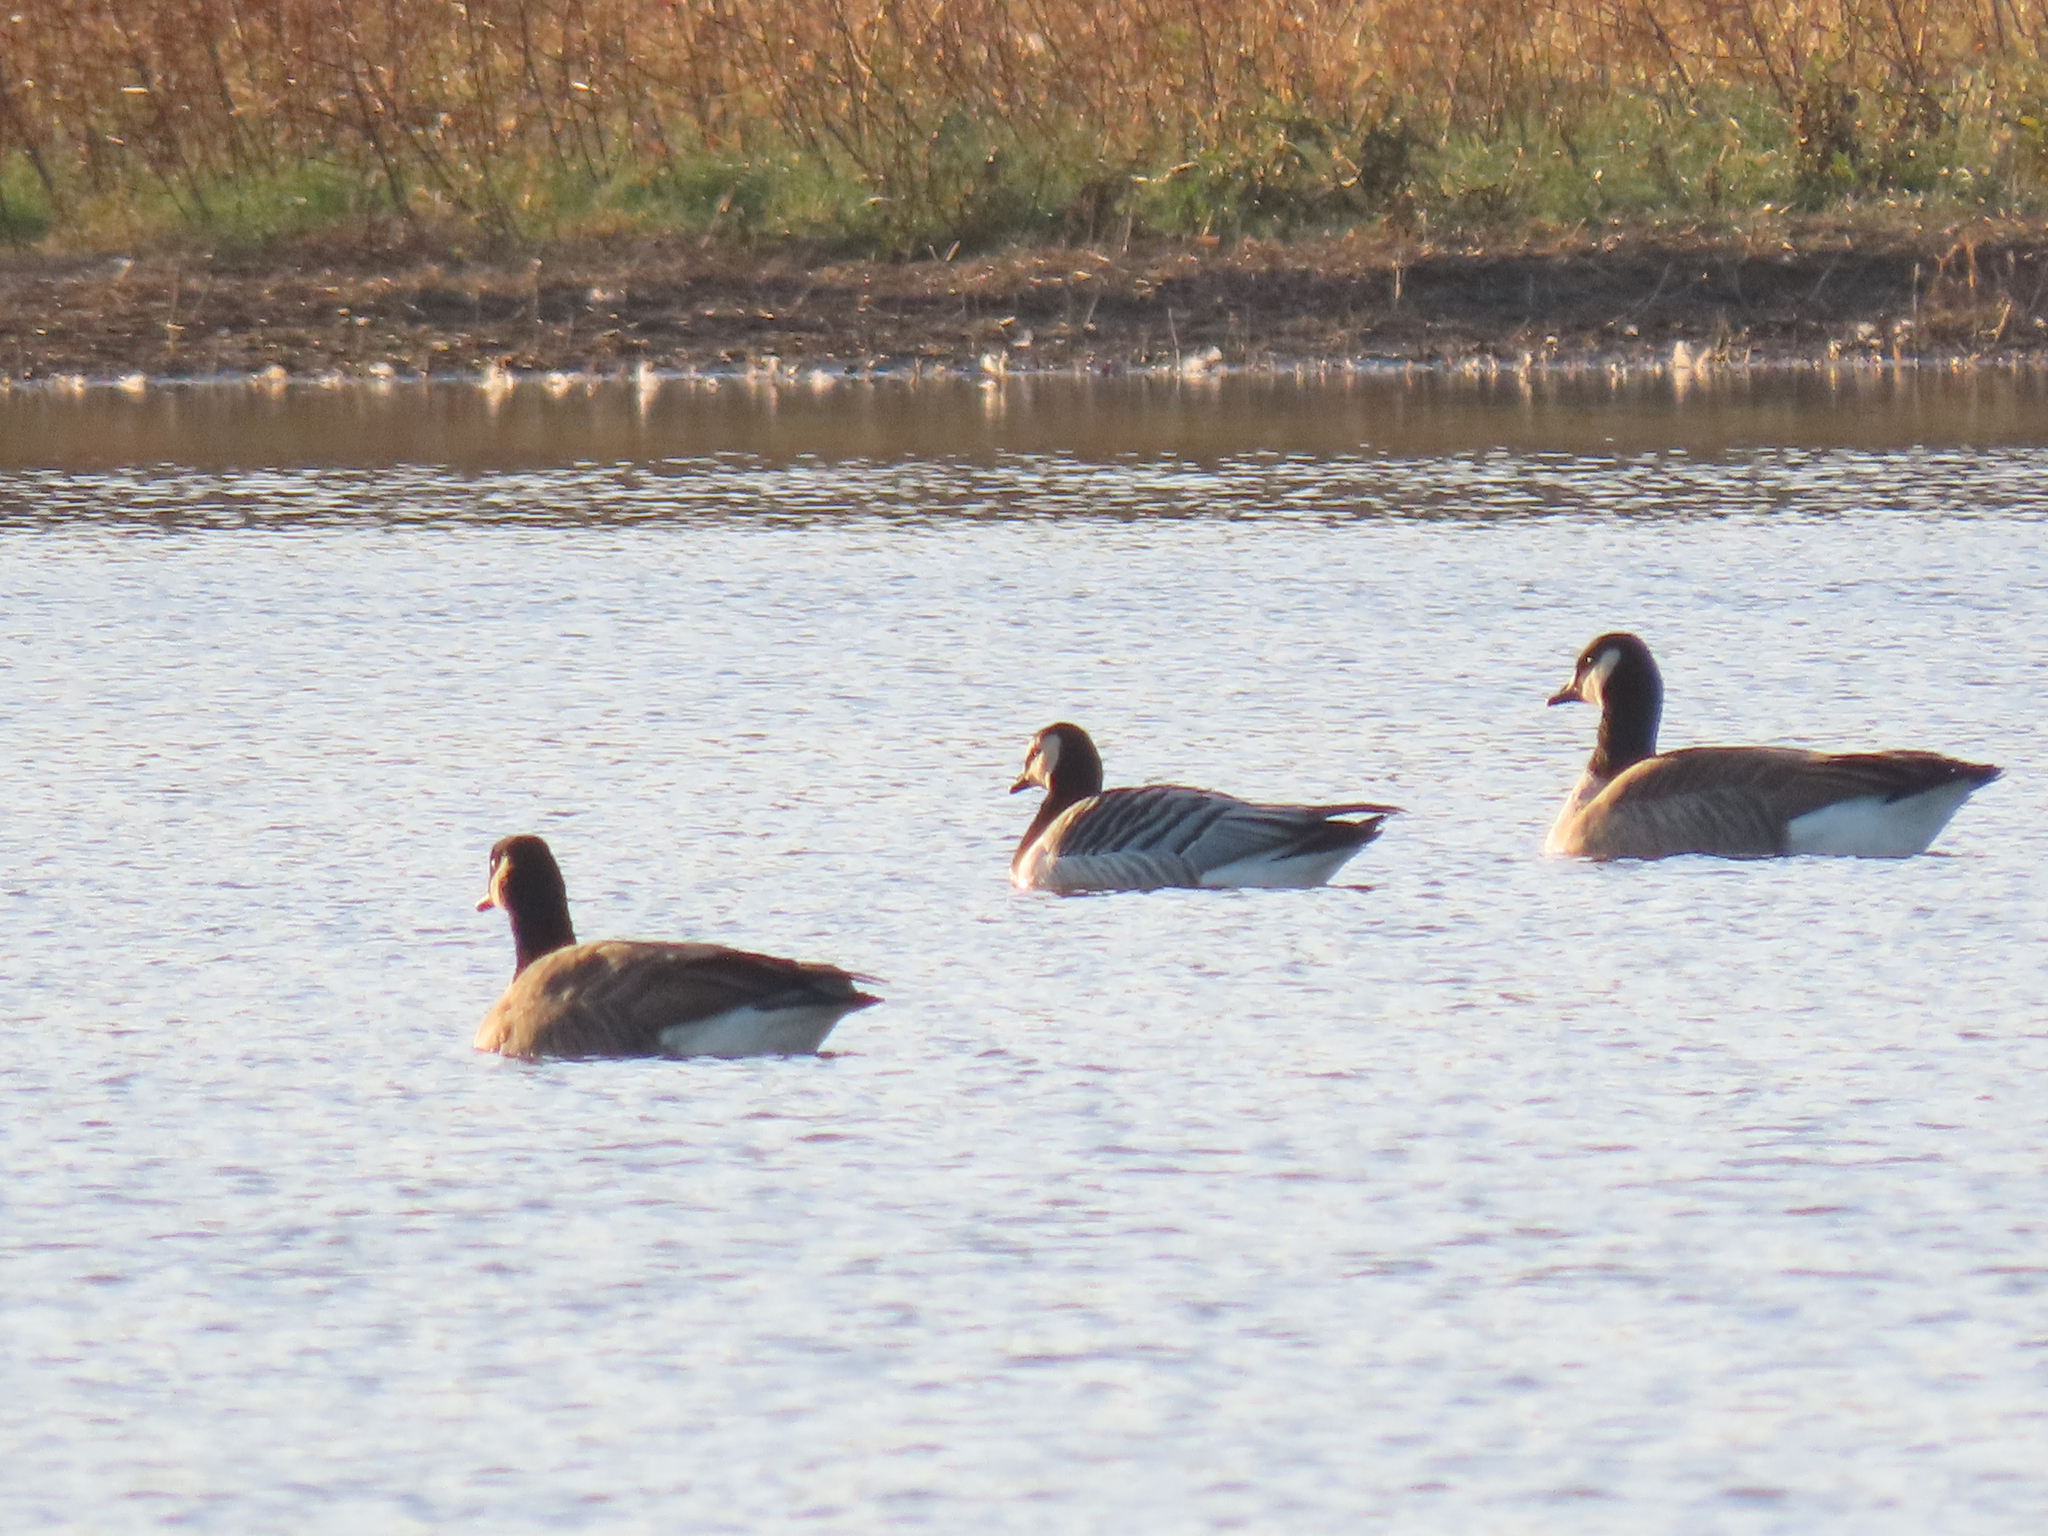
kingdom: Animalia
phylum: Chordata
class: Aves
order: Anseriformes
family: Anatidae
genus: Branta
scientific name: Branta leucopsis
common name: Barnacle goose
